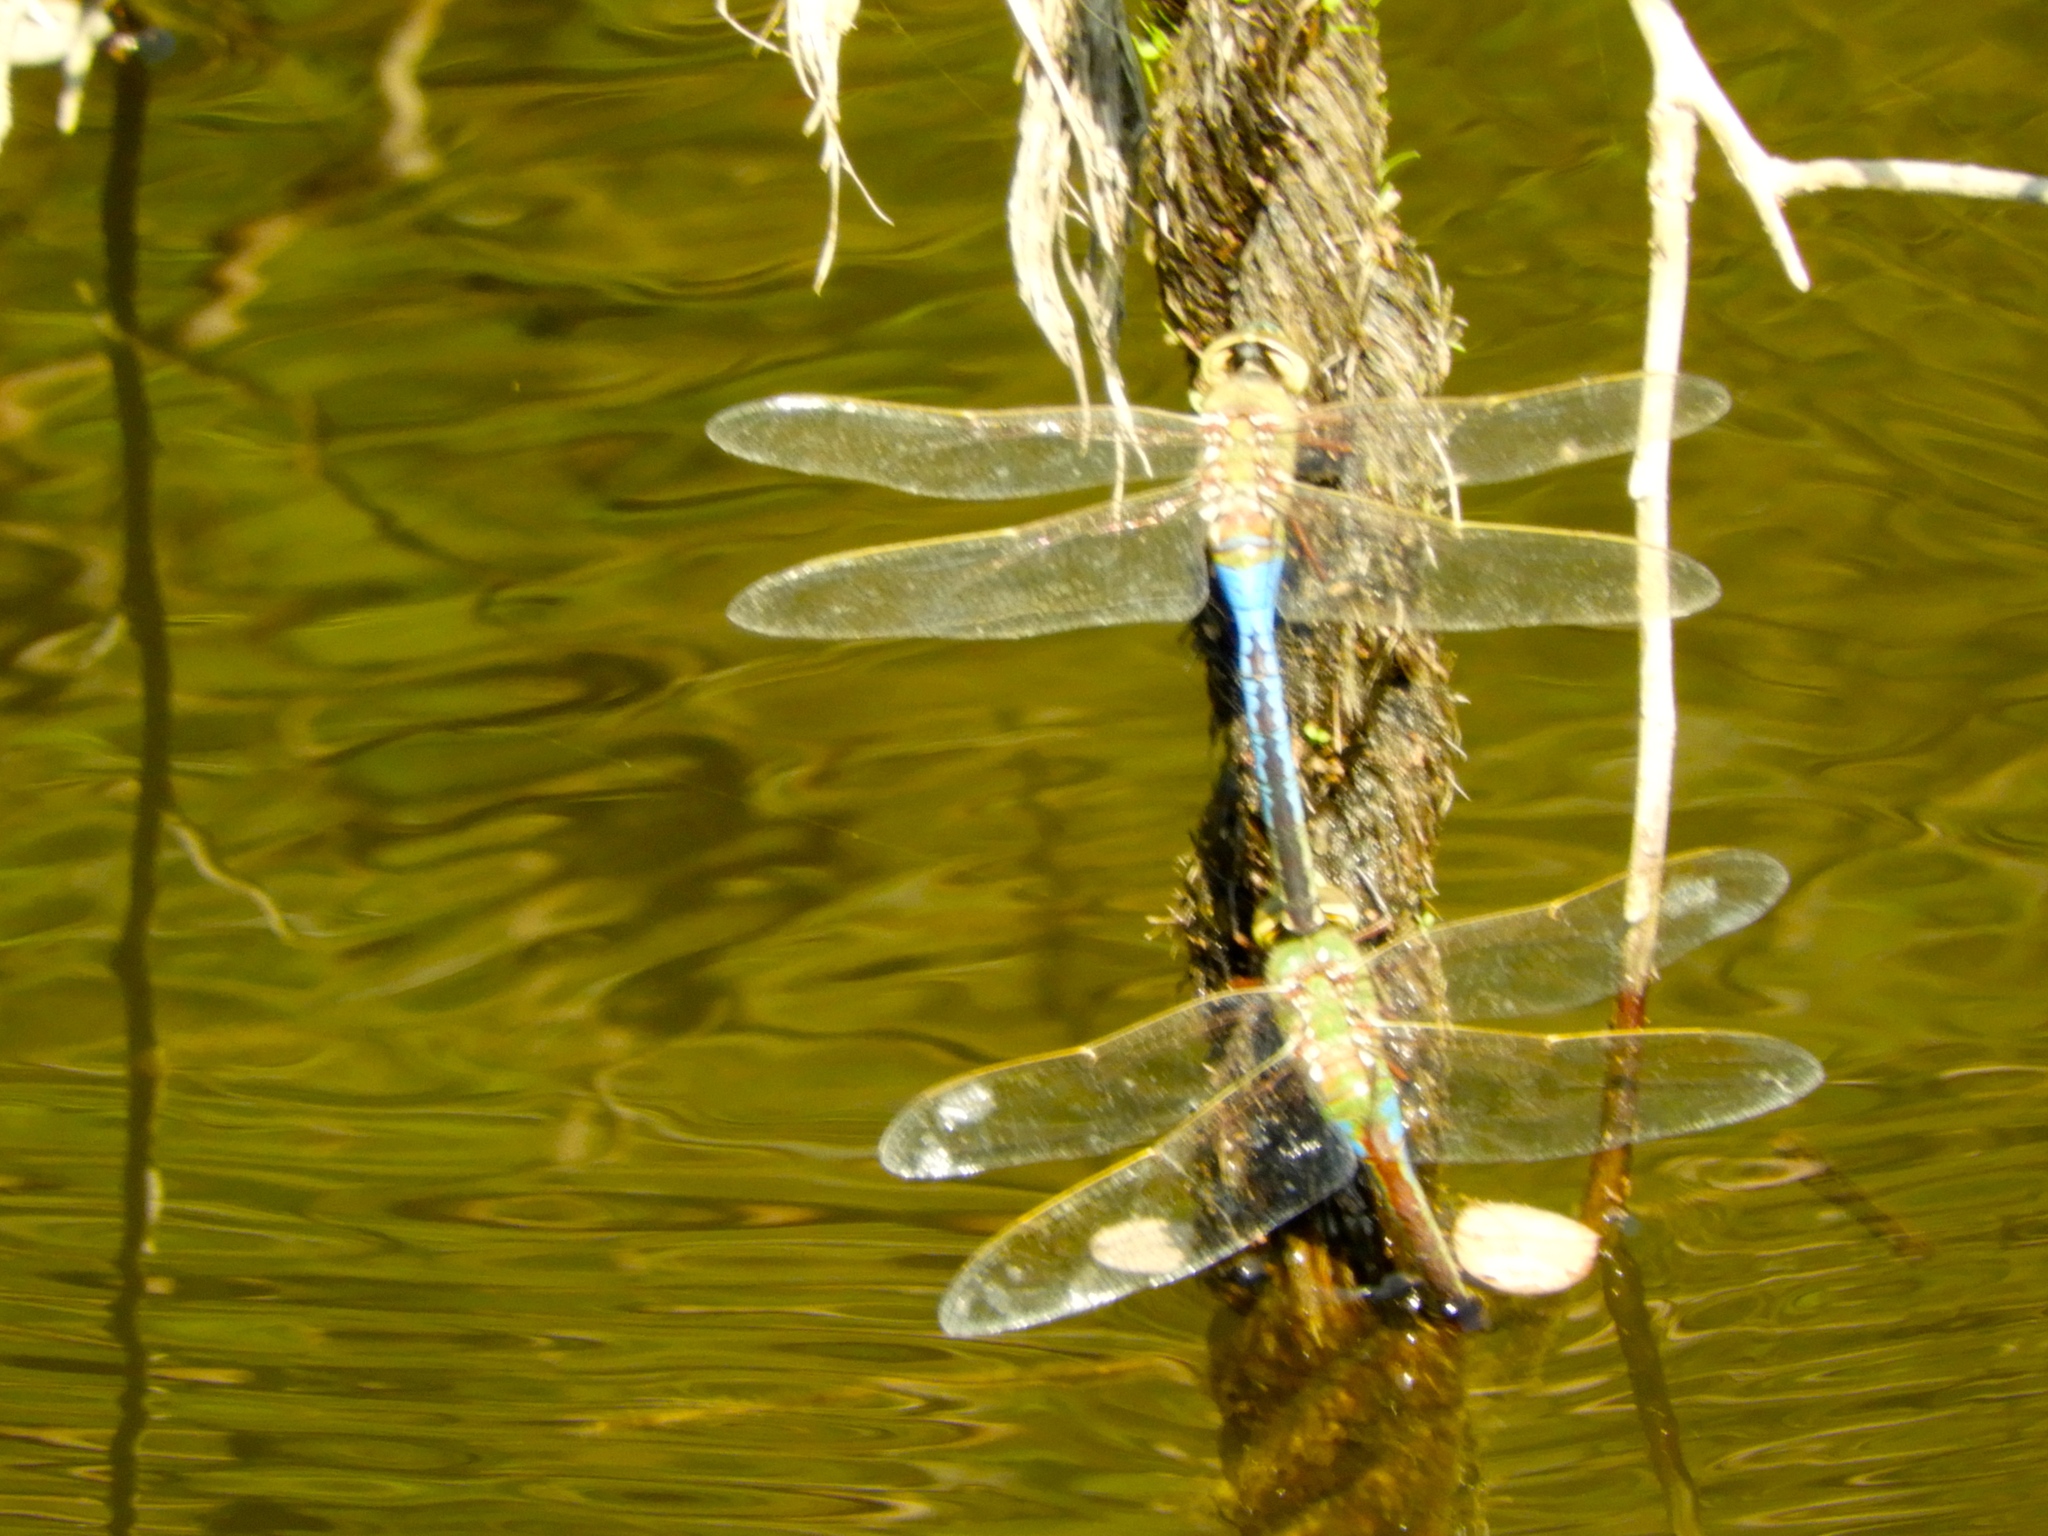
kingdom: Animalia
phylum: Arthropoda
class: Insecta
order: Odonata
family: Aeshnidae
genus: Anax
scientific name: Anax junius
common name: Common green darner
